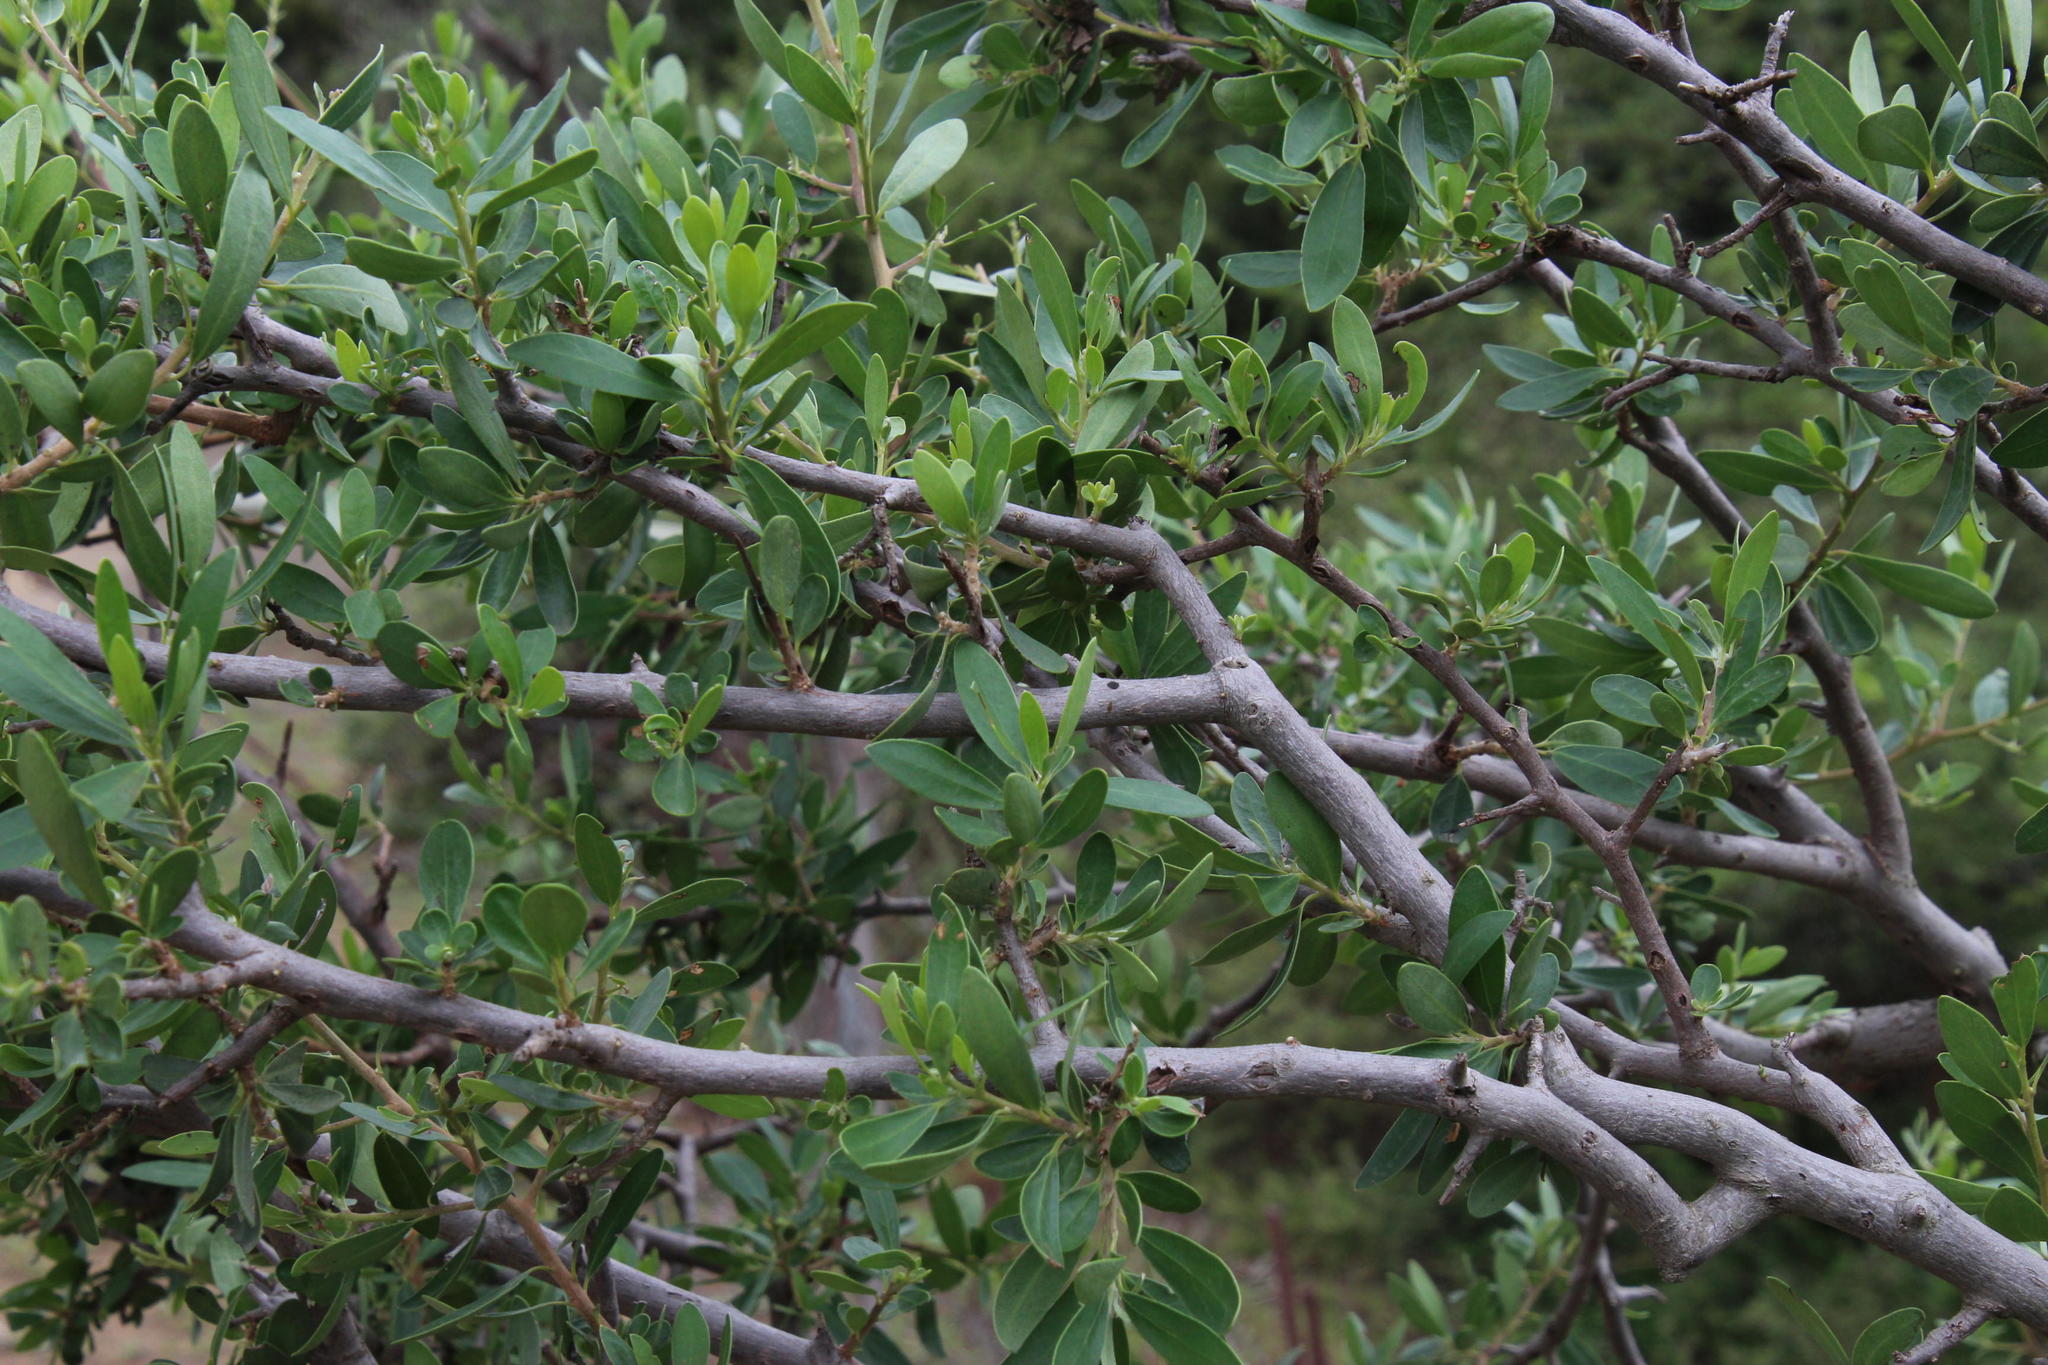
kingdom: Plantae
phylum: Tracheophyta
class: Magnoliopsida
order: Ericales
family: Ebenaceae
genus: Diospyros
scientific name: Diospyros lycioides
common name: Red star apple
